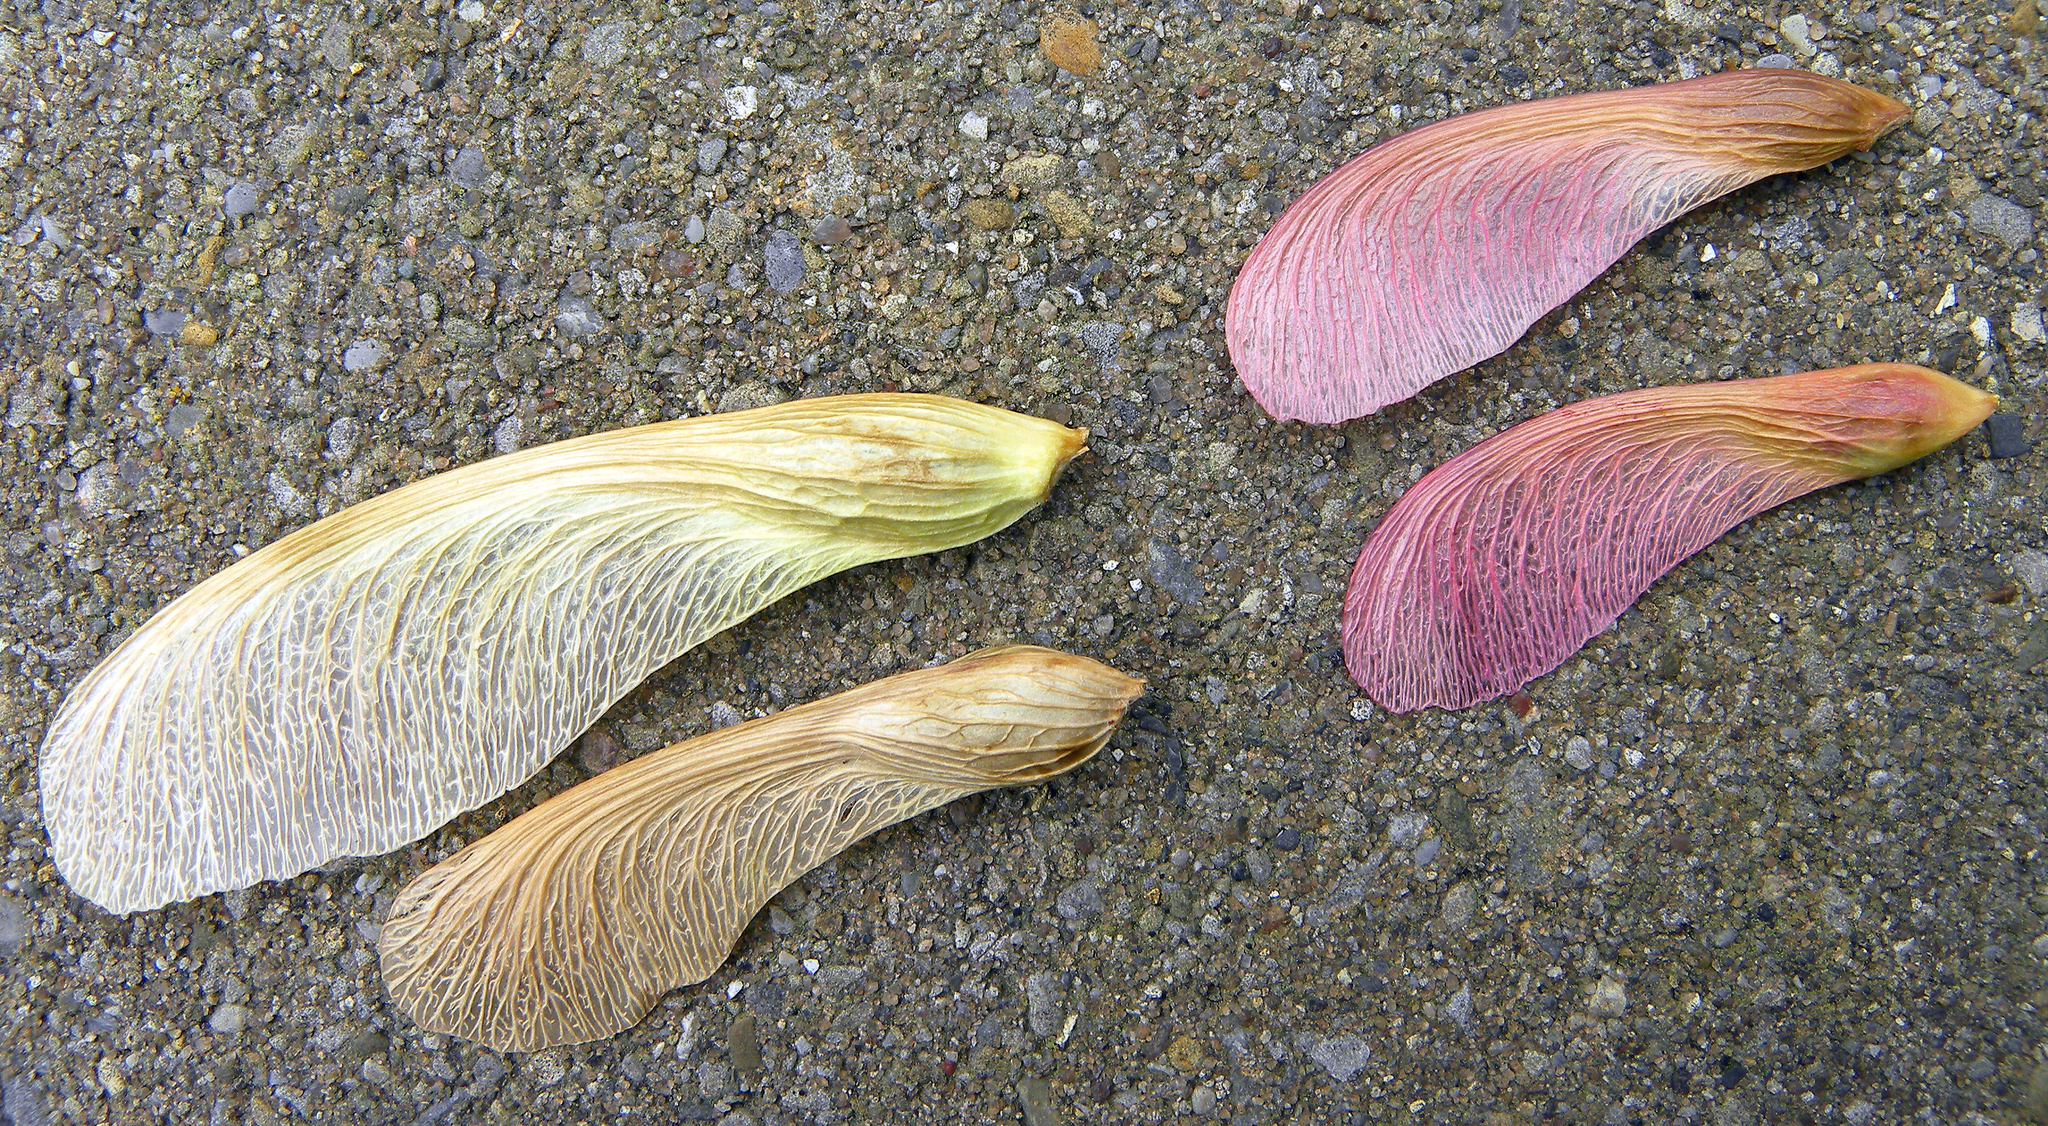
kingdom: Plantae
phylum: Tracheophyta
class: Magnoliopsida
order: Sapindales
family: Sapindaceae
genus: Acer
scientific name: Acer rubrum
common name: Red maple
